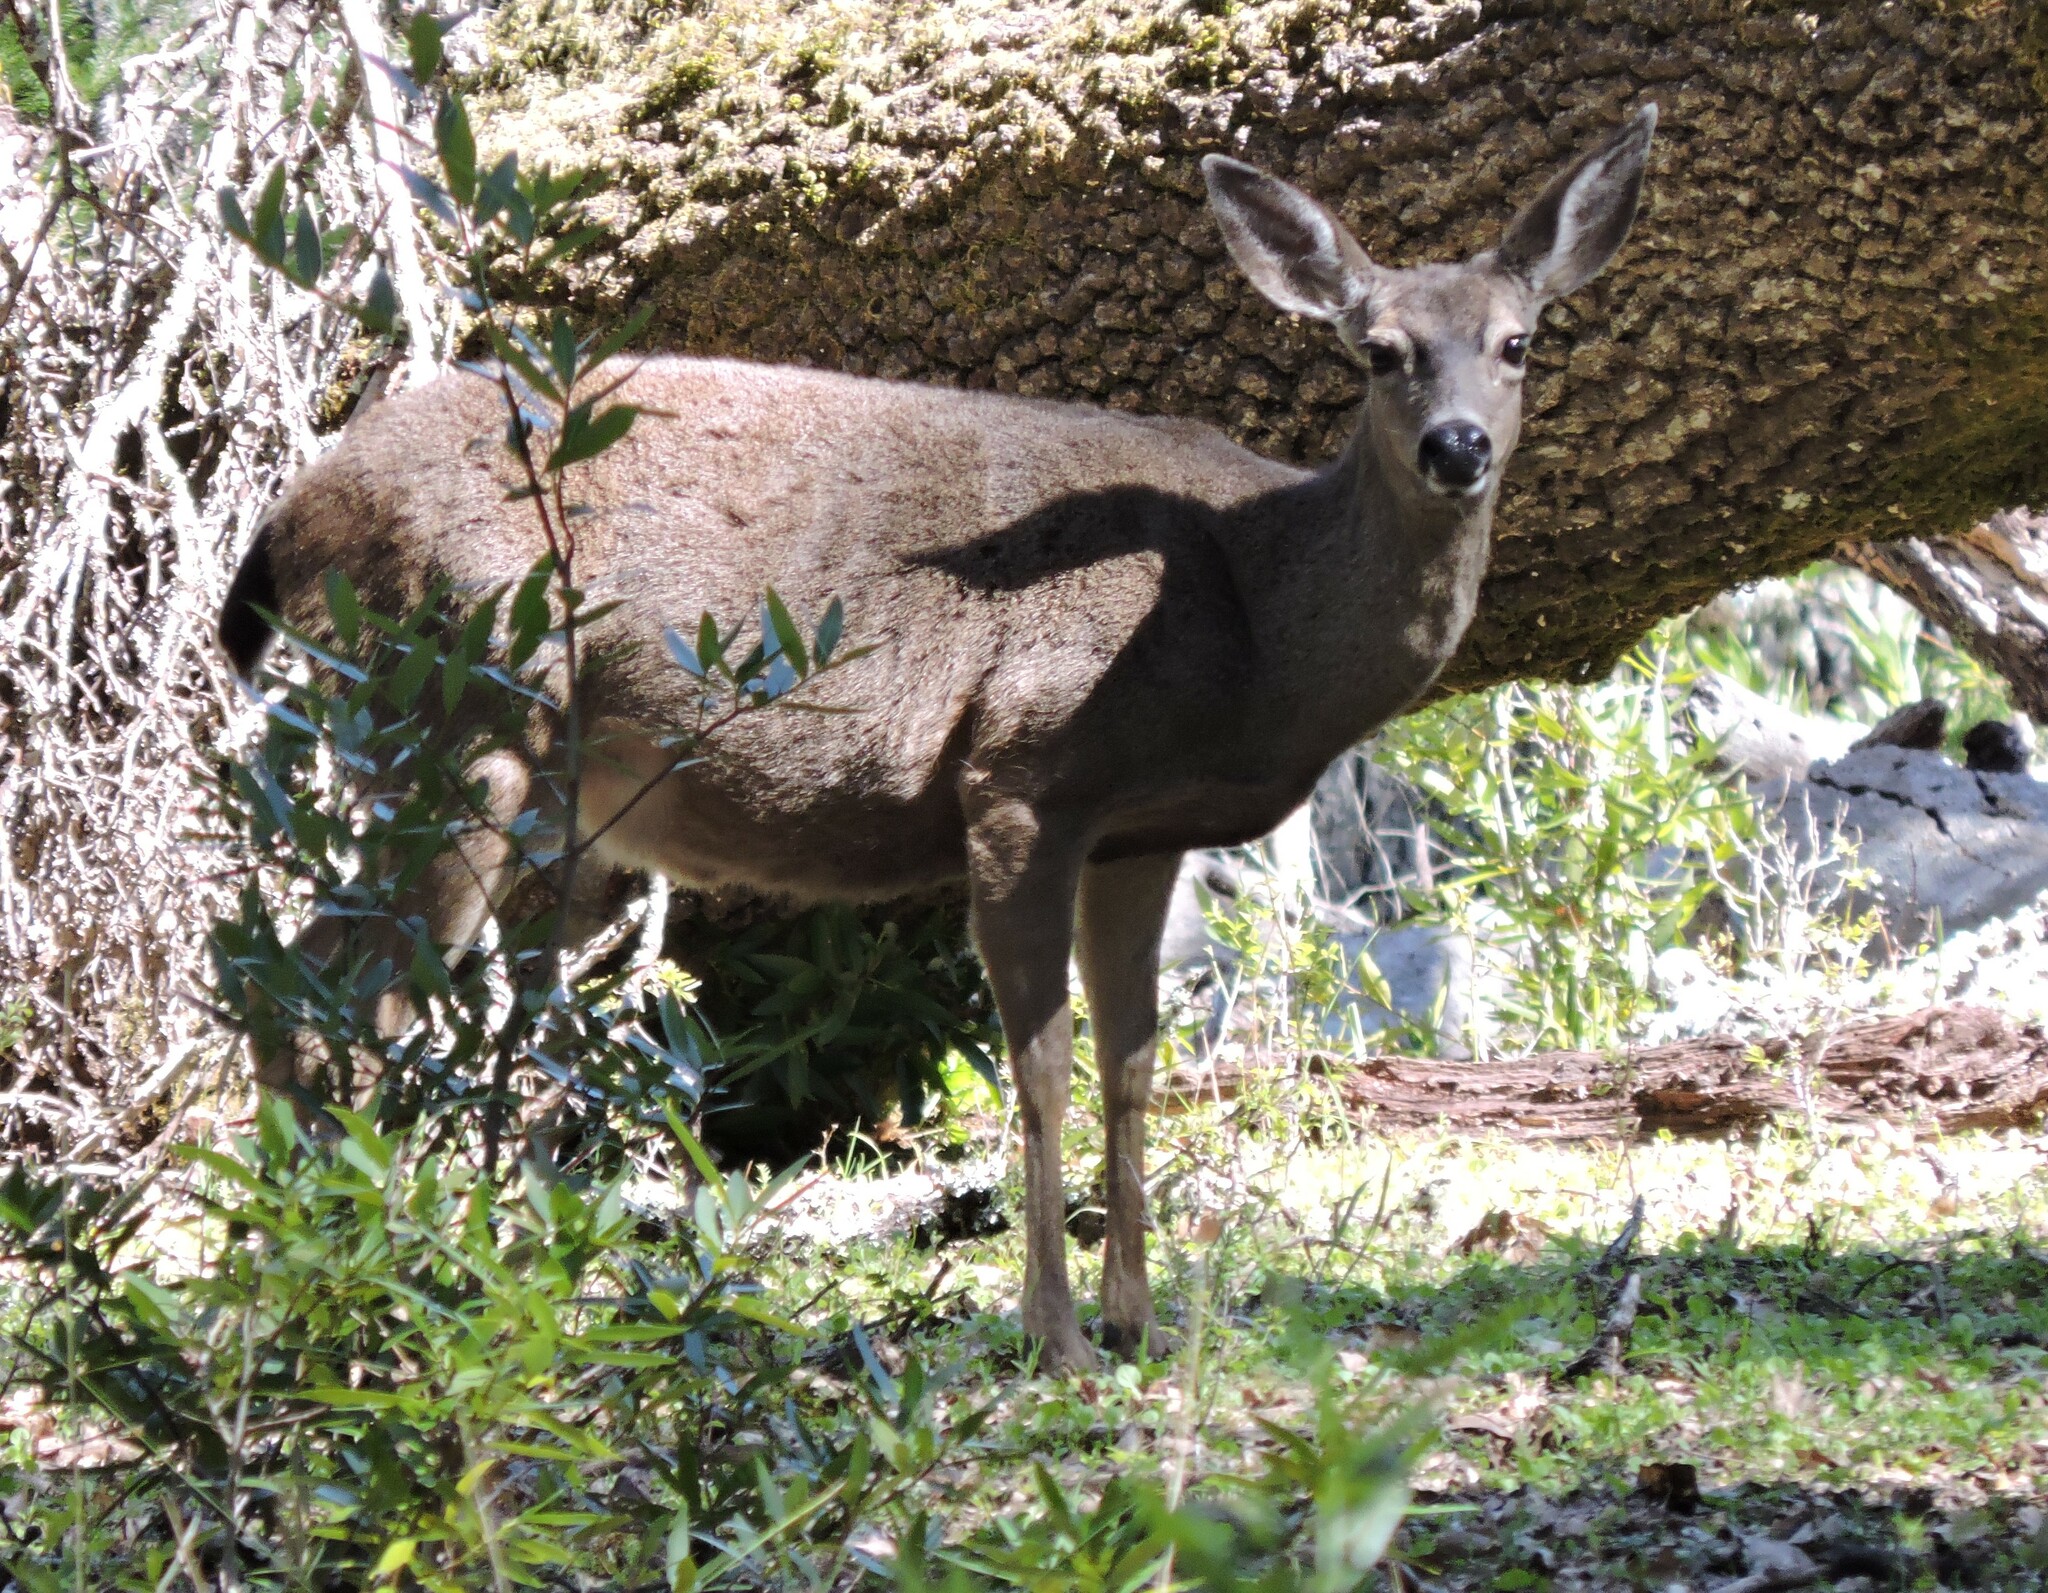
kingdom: Animalia
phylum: Chordata
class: Mammalia
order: Artiodactyla
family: Cervidae
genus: Odocoileus
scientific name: Odocoileus hemionus
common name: Mule deer
